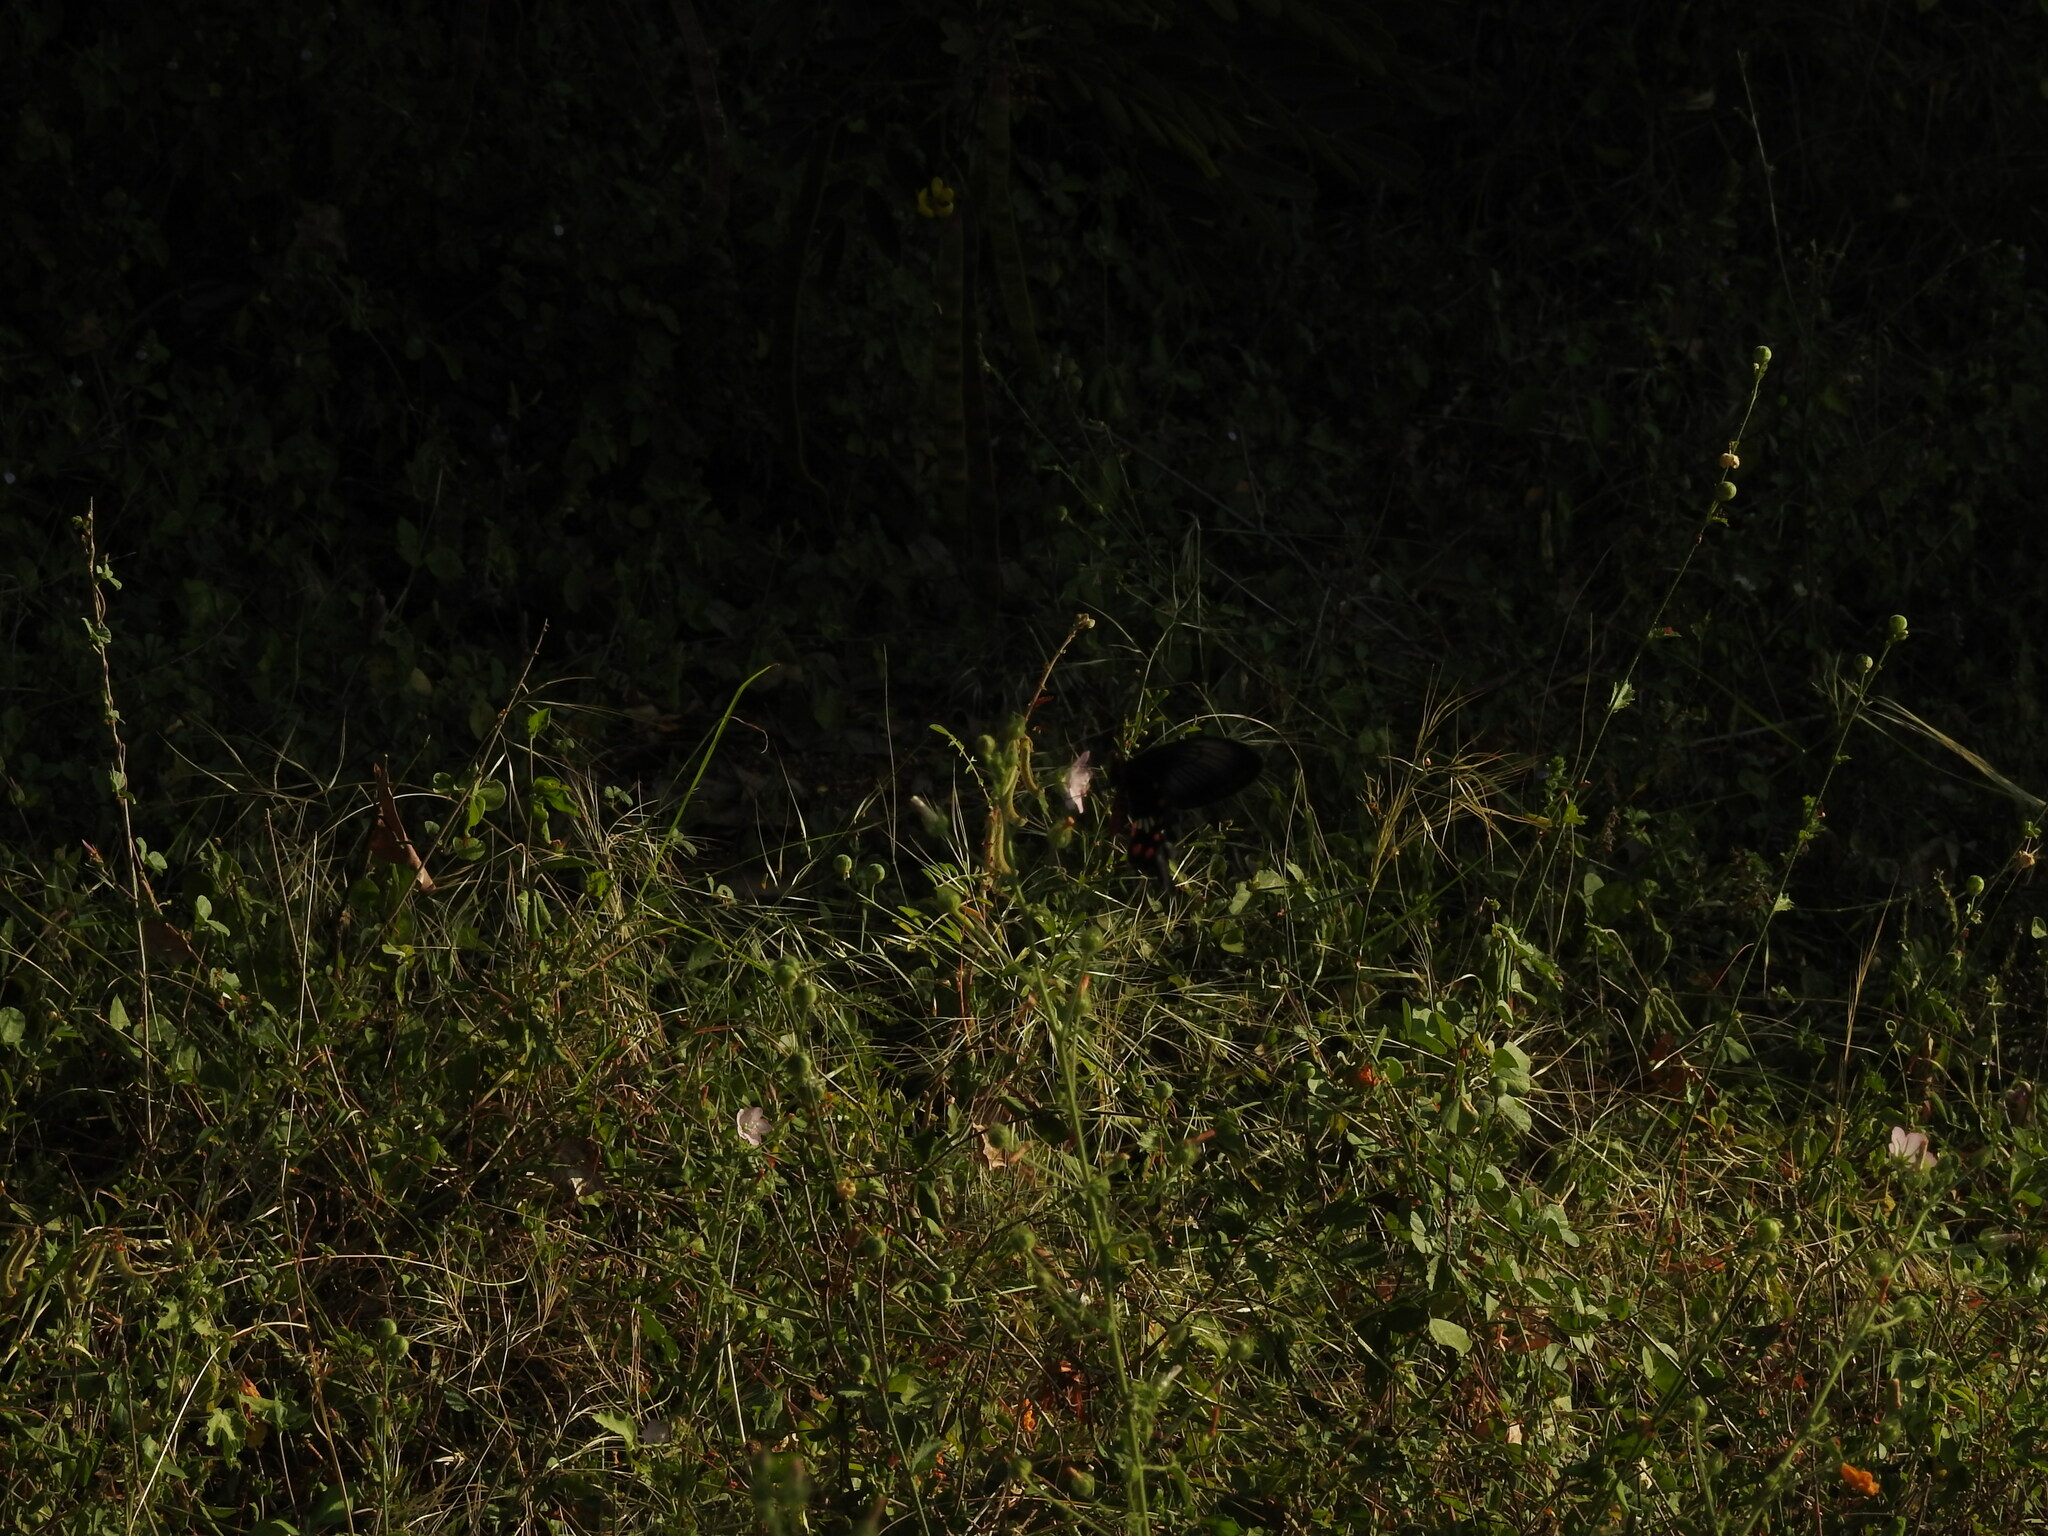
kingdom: Animalia
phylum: Arthropoda
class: Insecta
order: Lepidoptera
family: Papilionidae
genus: Pachliopta
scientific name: Pachliopta aristolochiae
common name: Common rose
